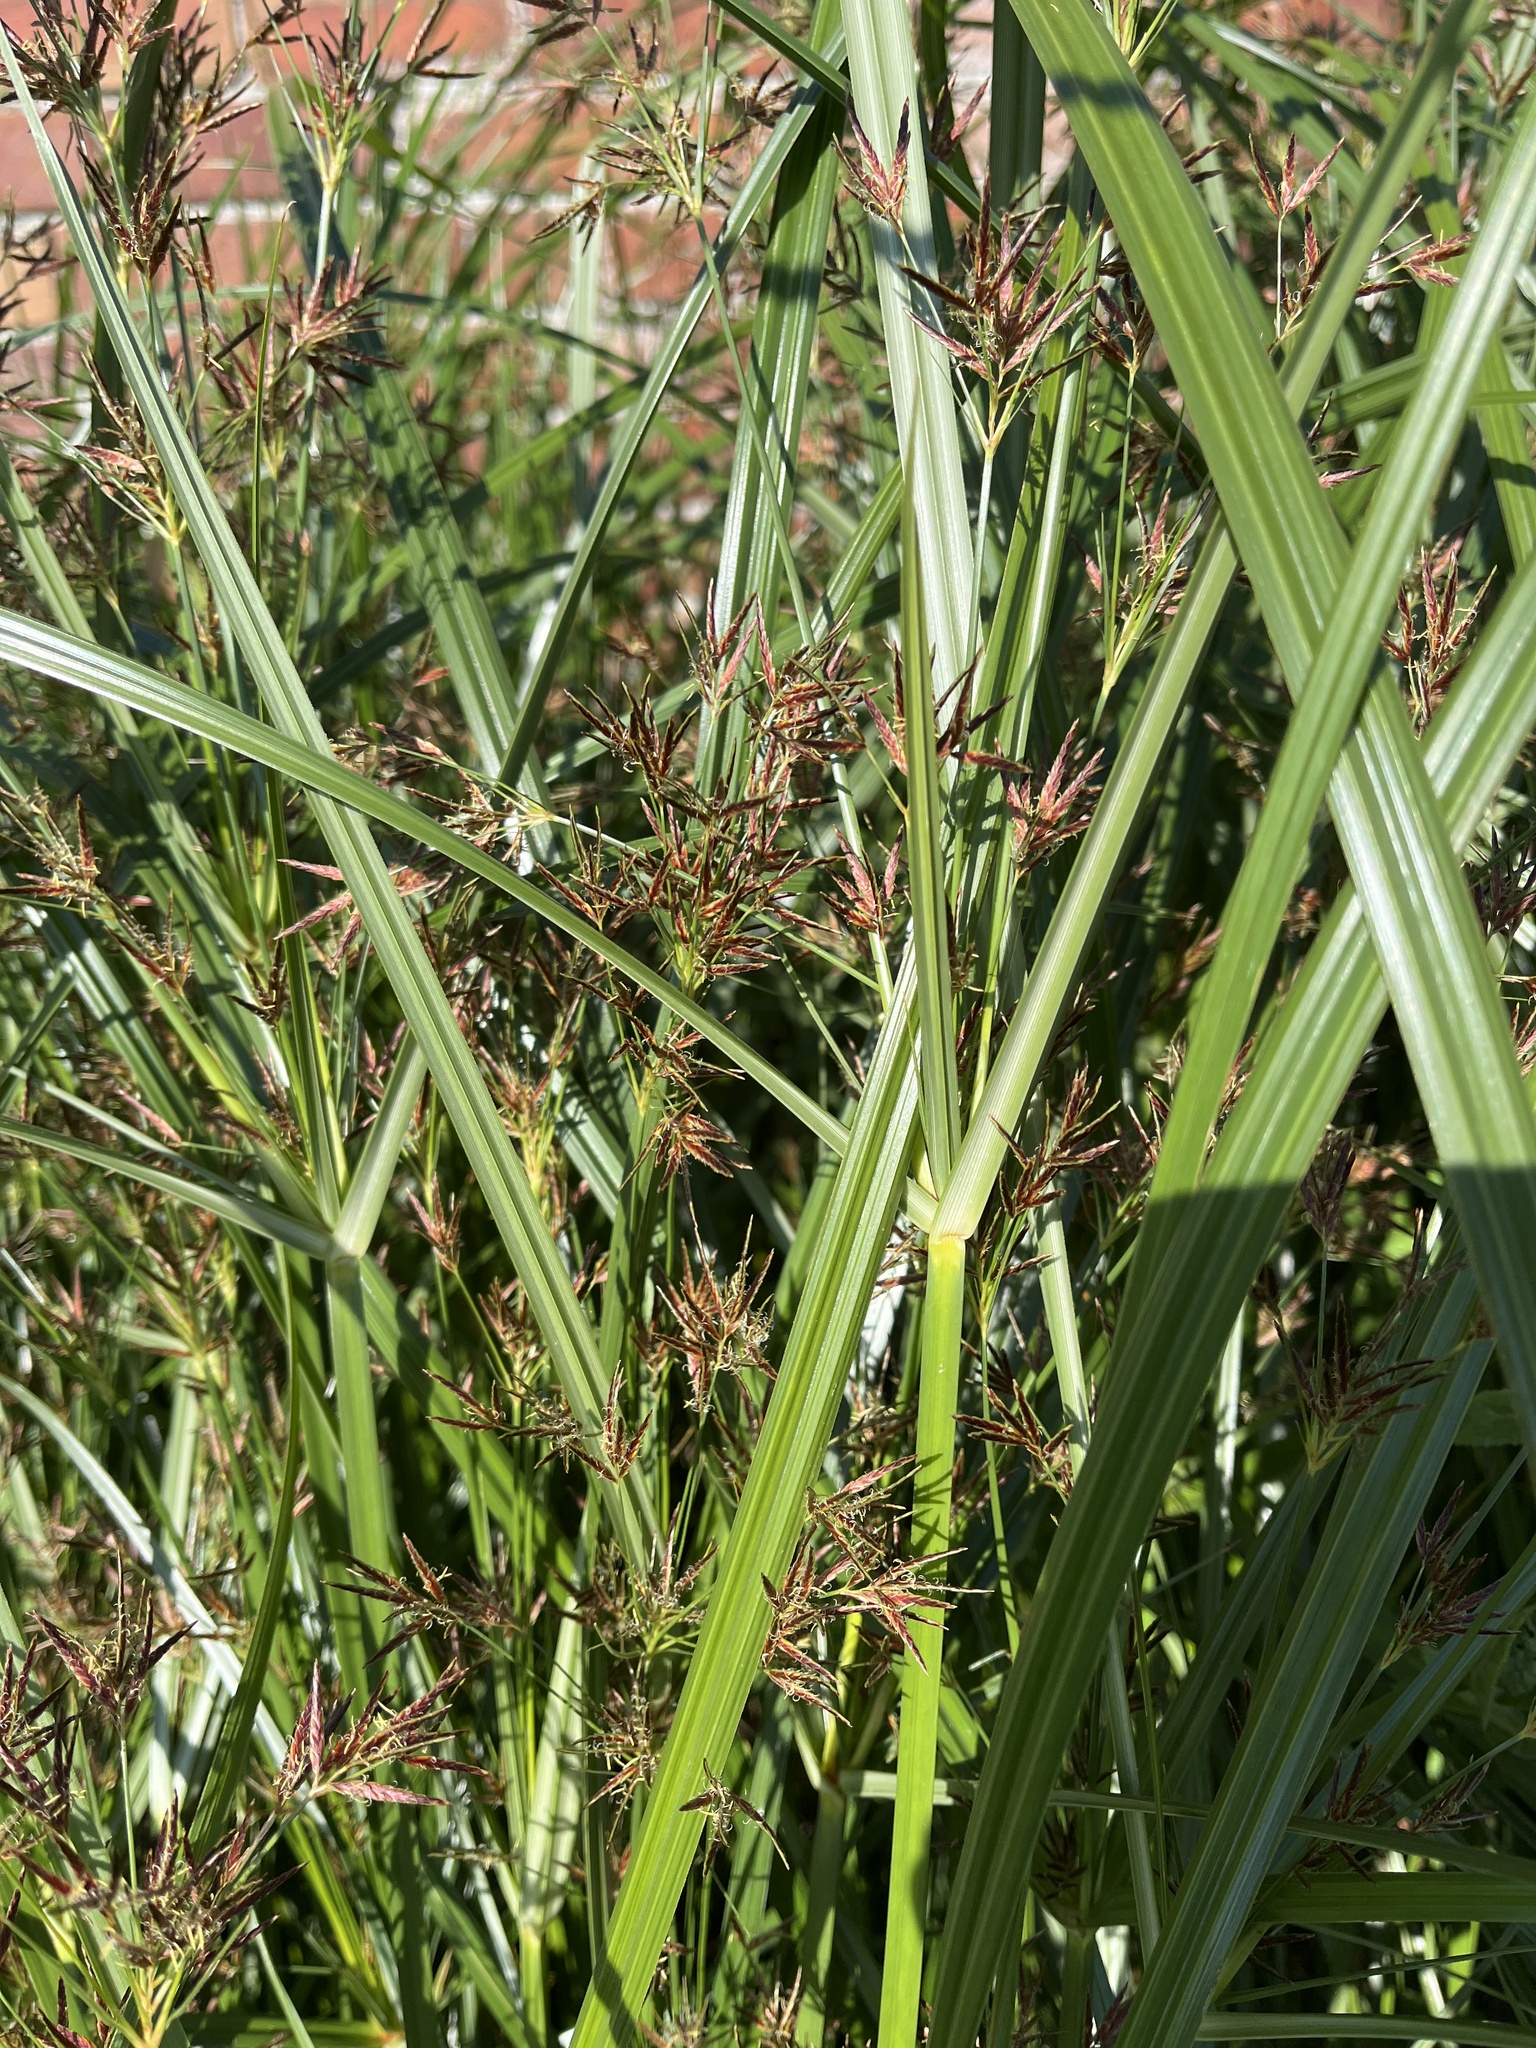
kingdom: Plantae
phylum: Tracheophyta
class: Liliopsida
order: Poales
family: Cyperaceae
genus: Cyperus
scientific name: Cyperus longus
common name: Galingale
